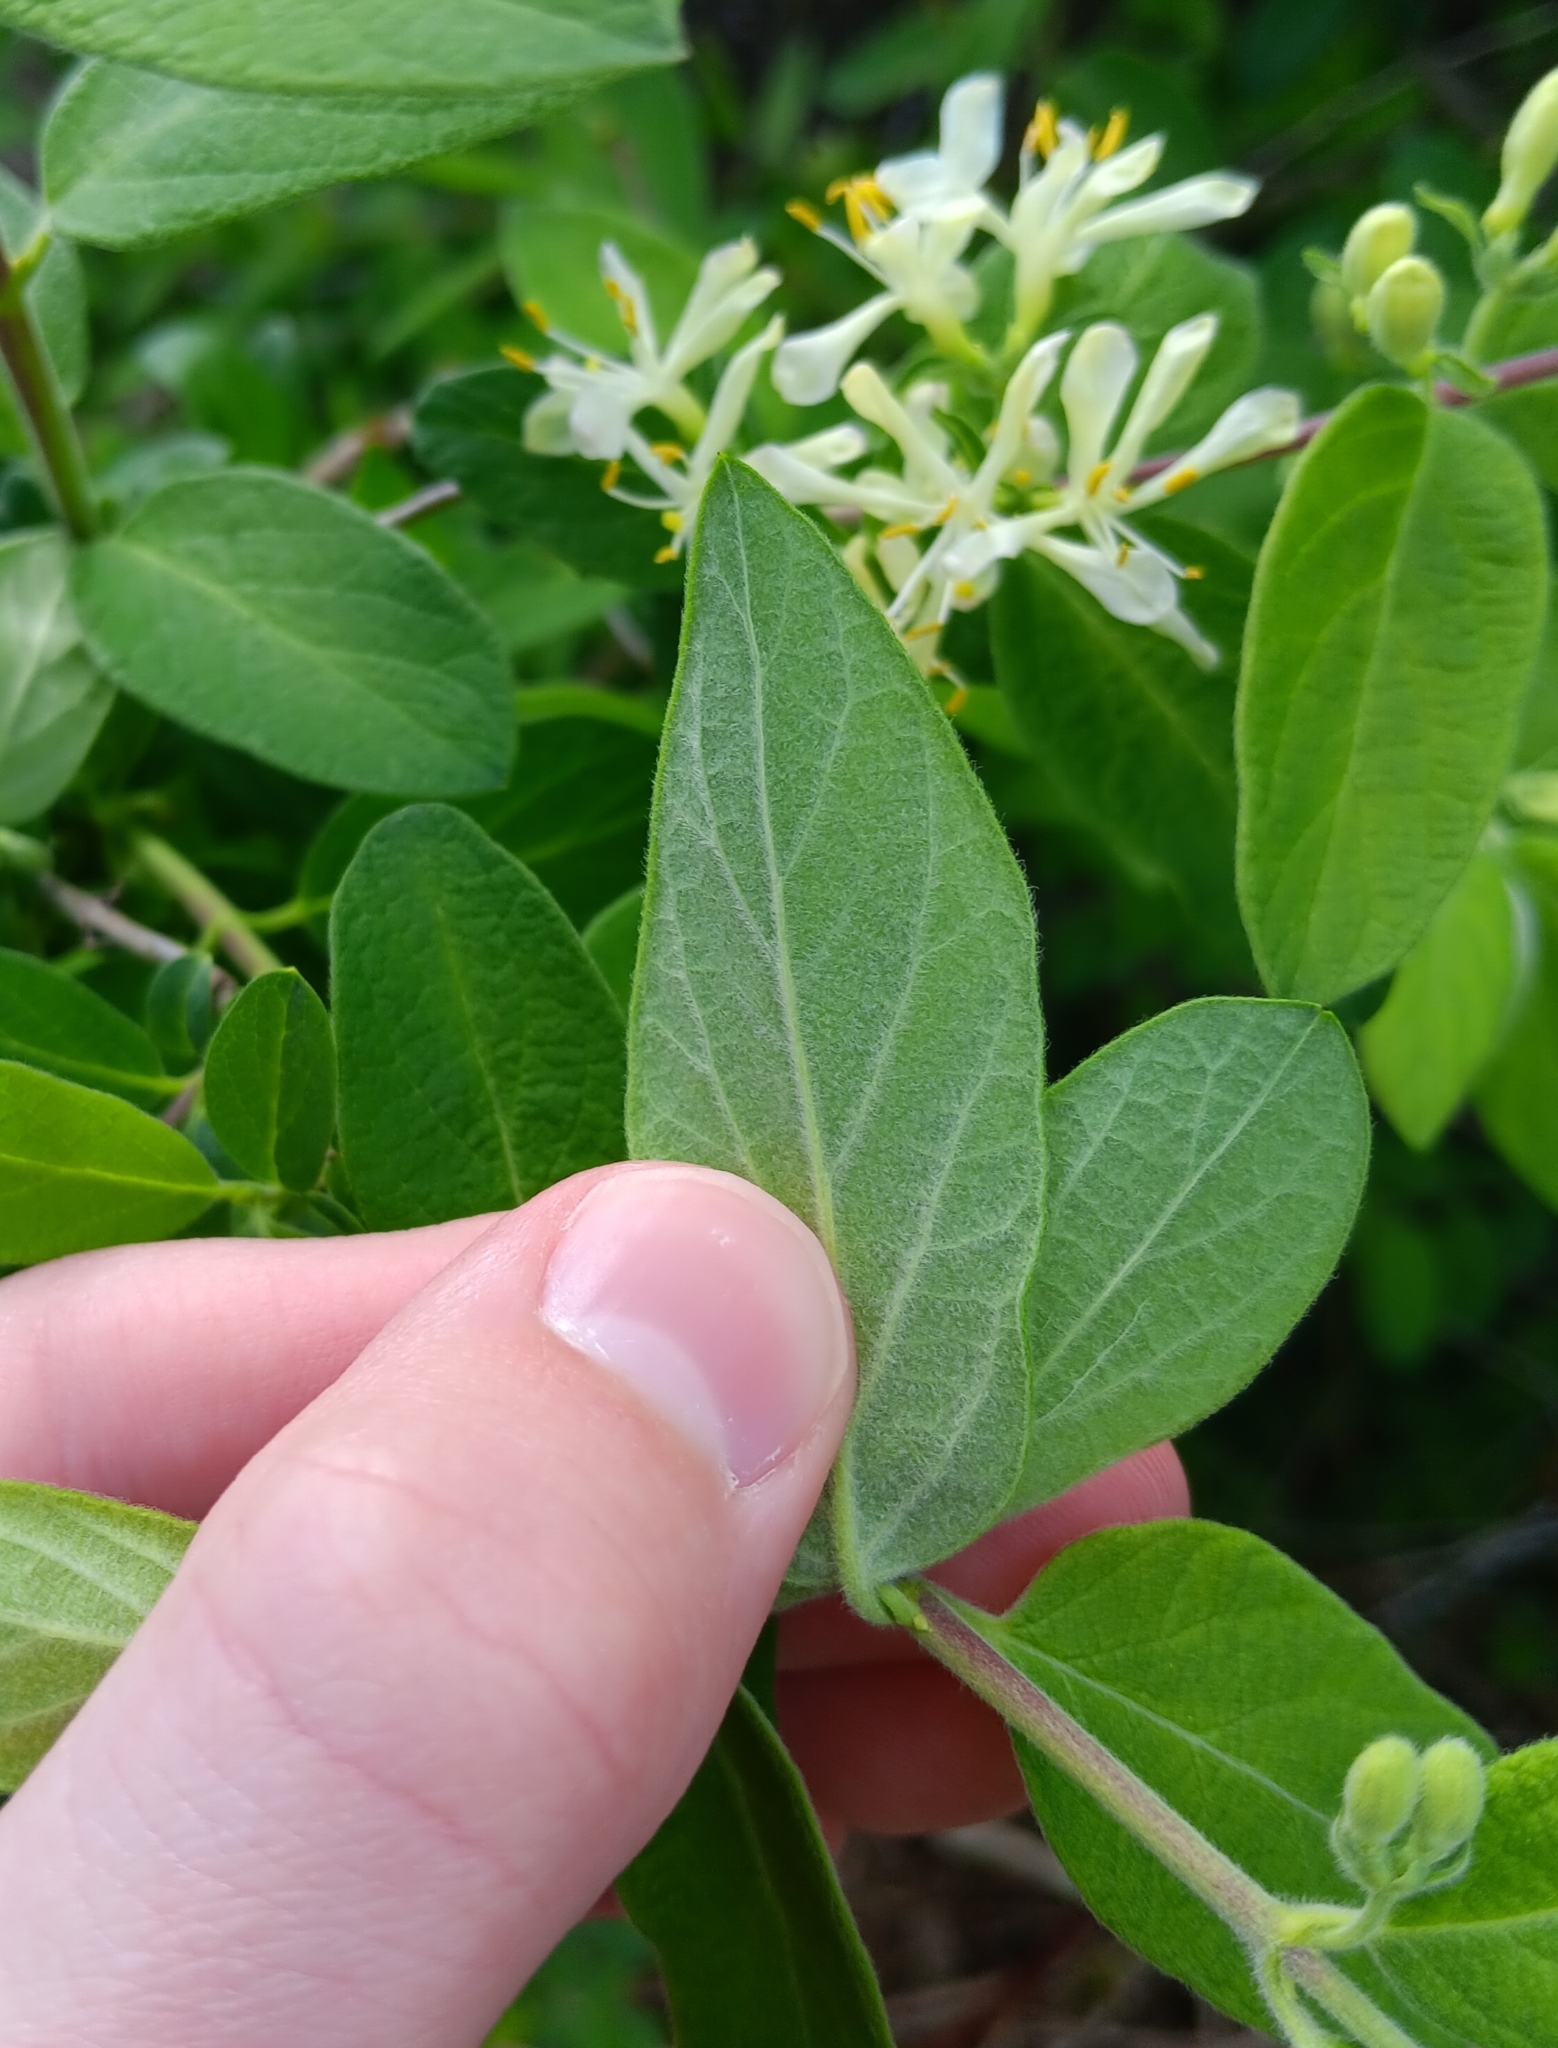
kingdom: Plantae
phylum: Tracheophyta
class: Magnoliopsida
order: Dipsacales
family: Caprifoliaceae
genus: Lonicera
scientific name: Lonicera morrowii
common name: Morrow's honeysuckle
